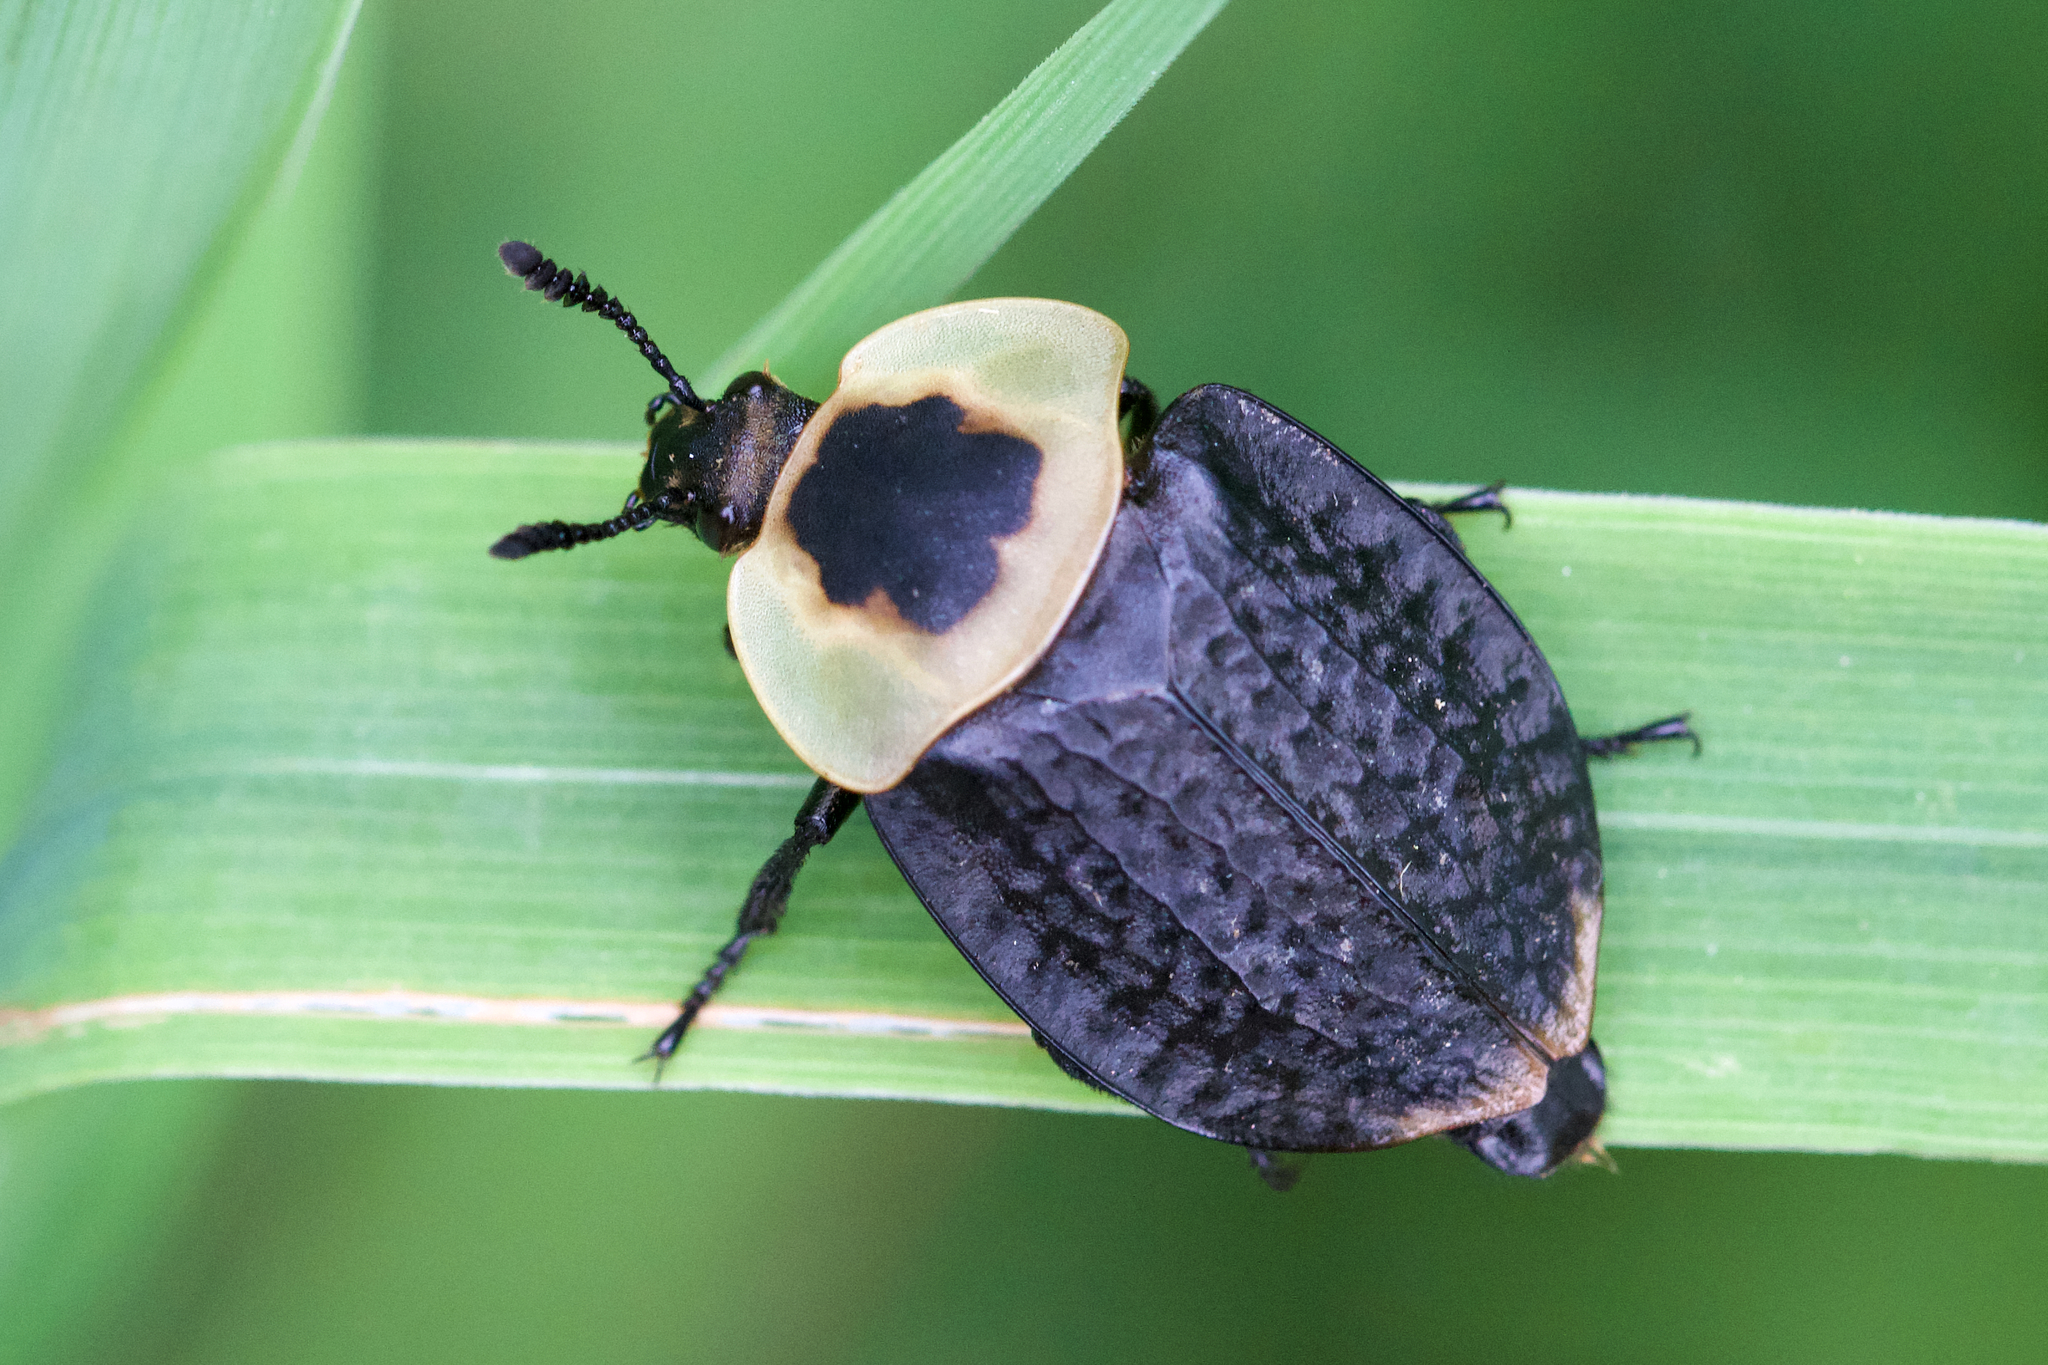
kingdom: Animalia
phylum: Arthropoda
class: Insecta
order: Coleoptera
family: Staphylinidae
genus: Necrophila
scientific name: Necrophila americana
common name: American carrion beetle
